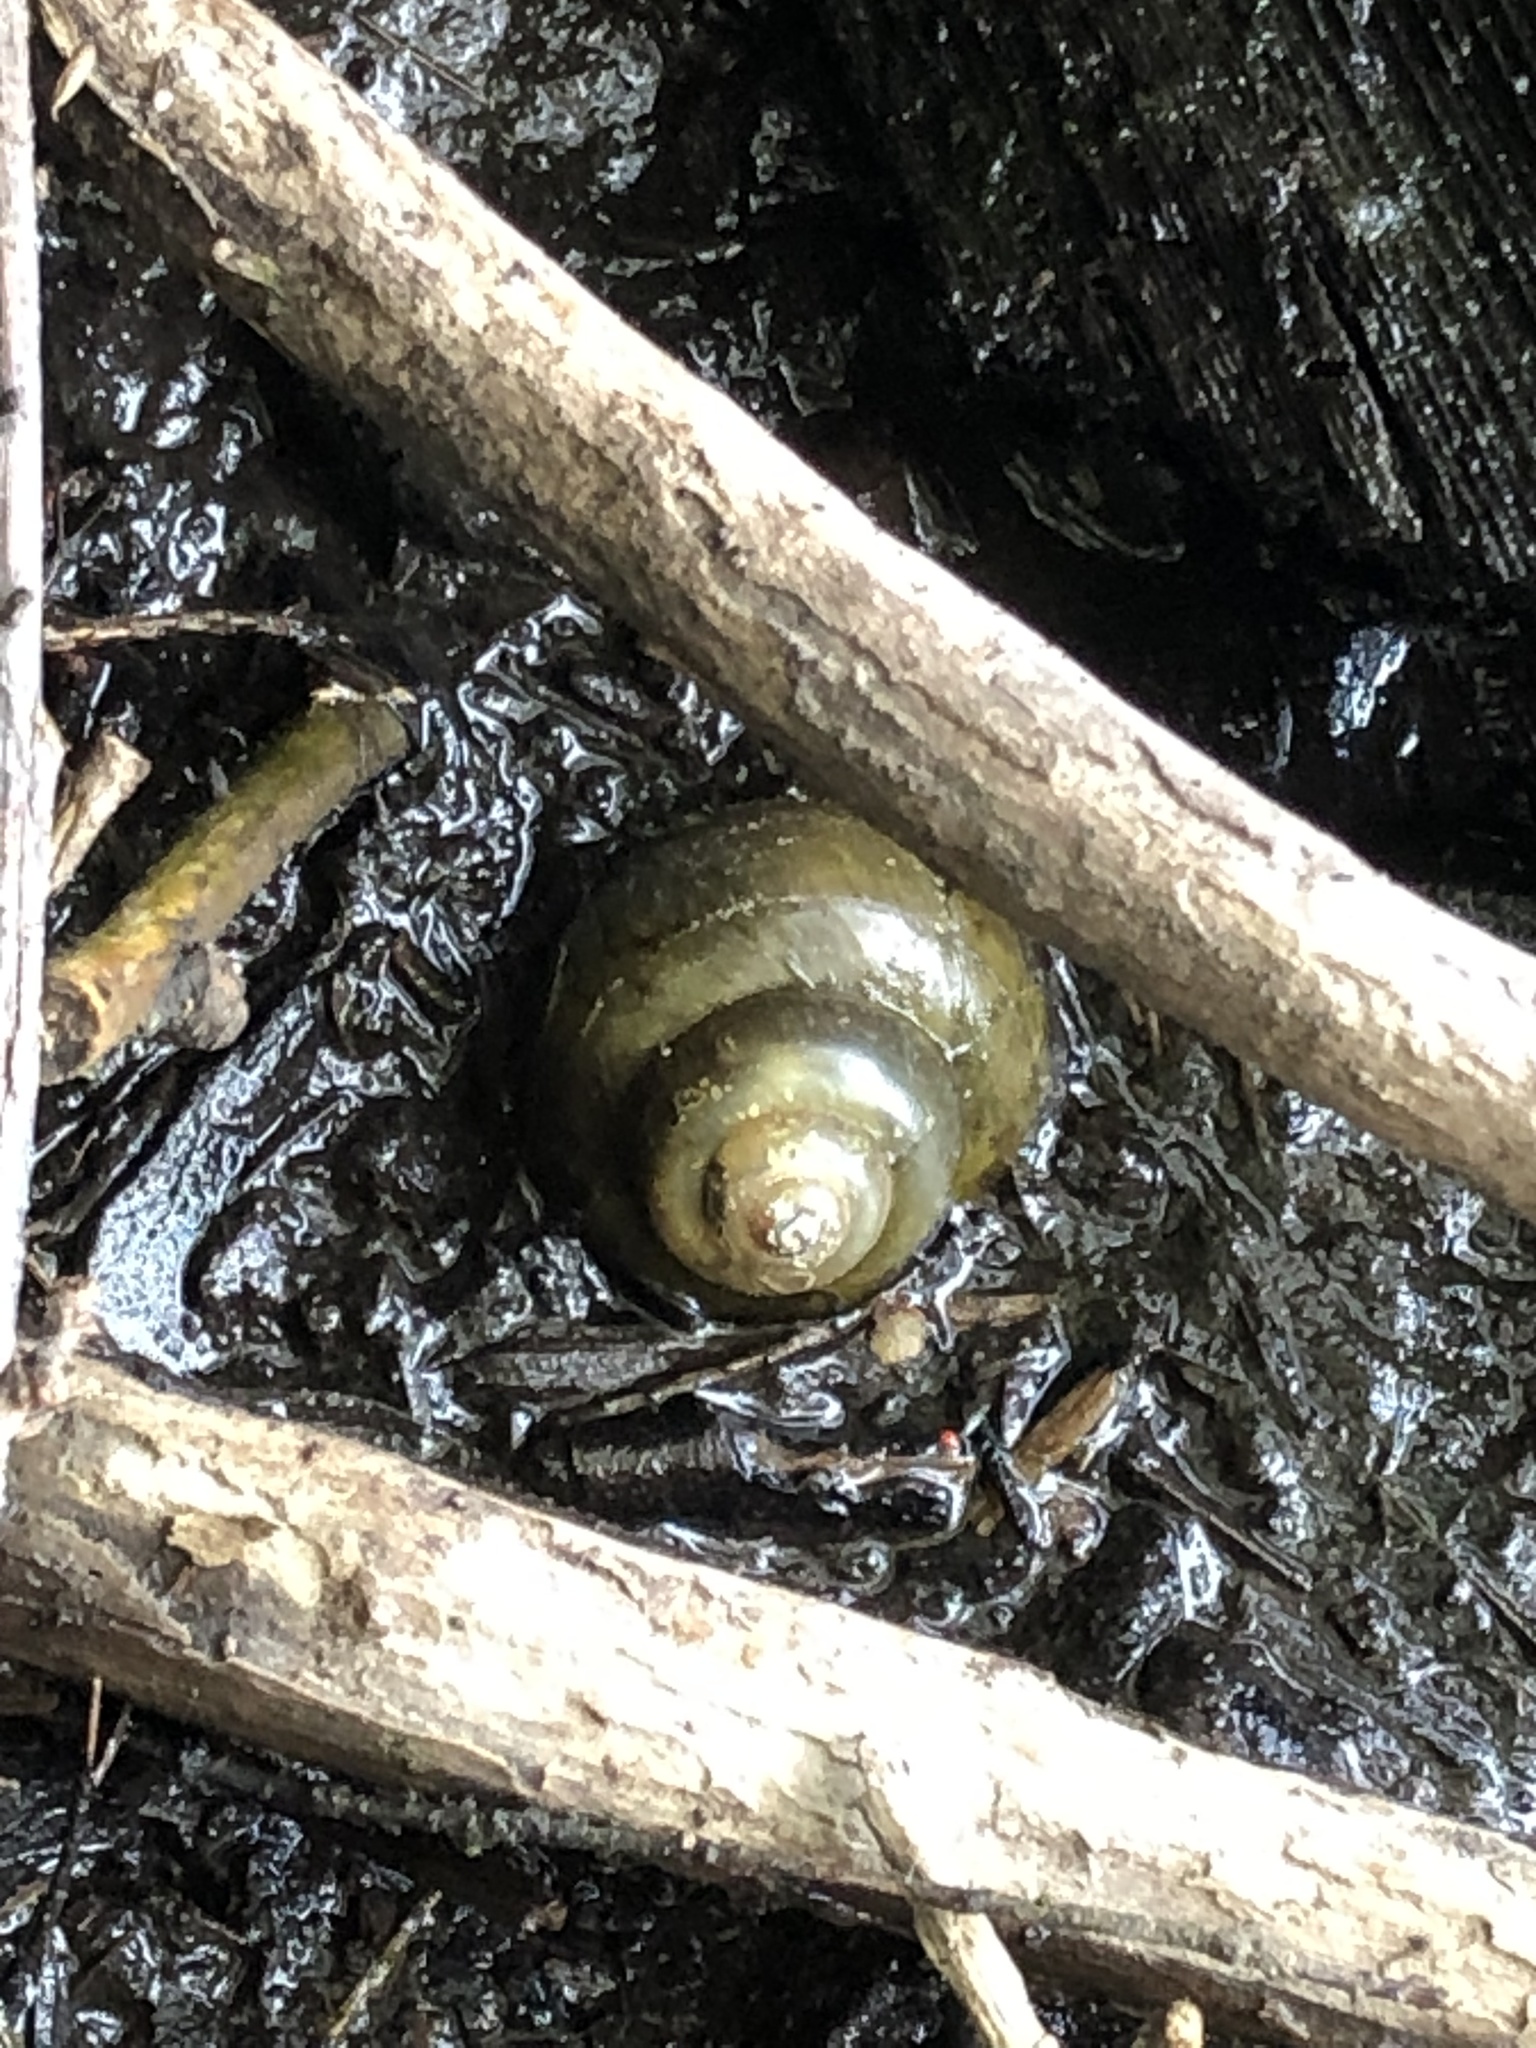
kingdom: Animalia
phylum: Mollusca
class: Gastropoda
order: Architaenioglossa
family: Viviparidae
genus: Cipangopaludina
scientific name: Cipangopaludina chinensis
